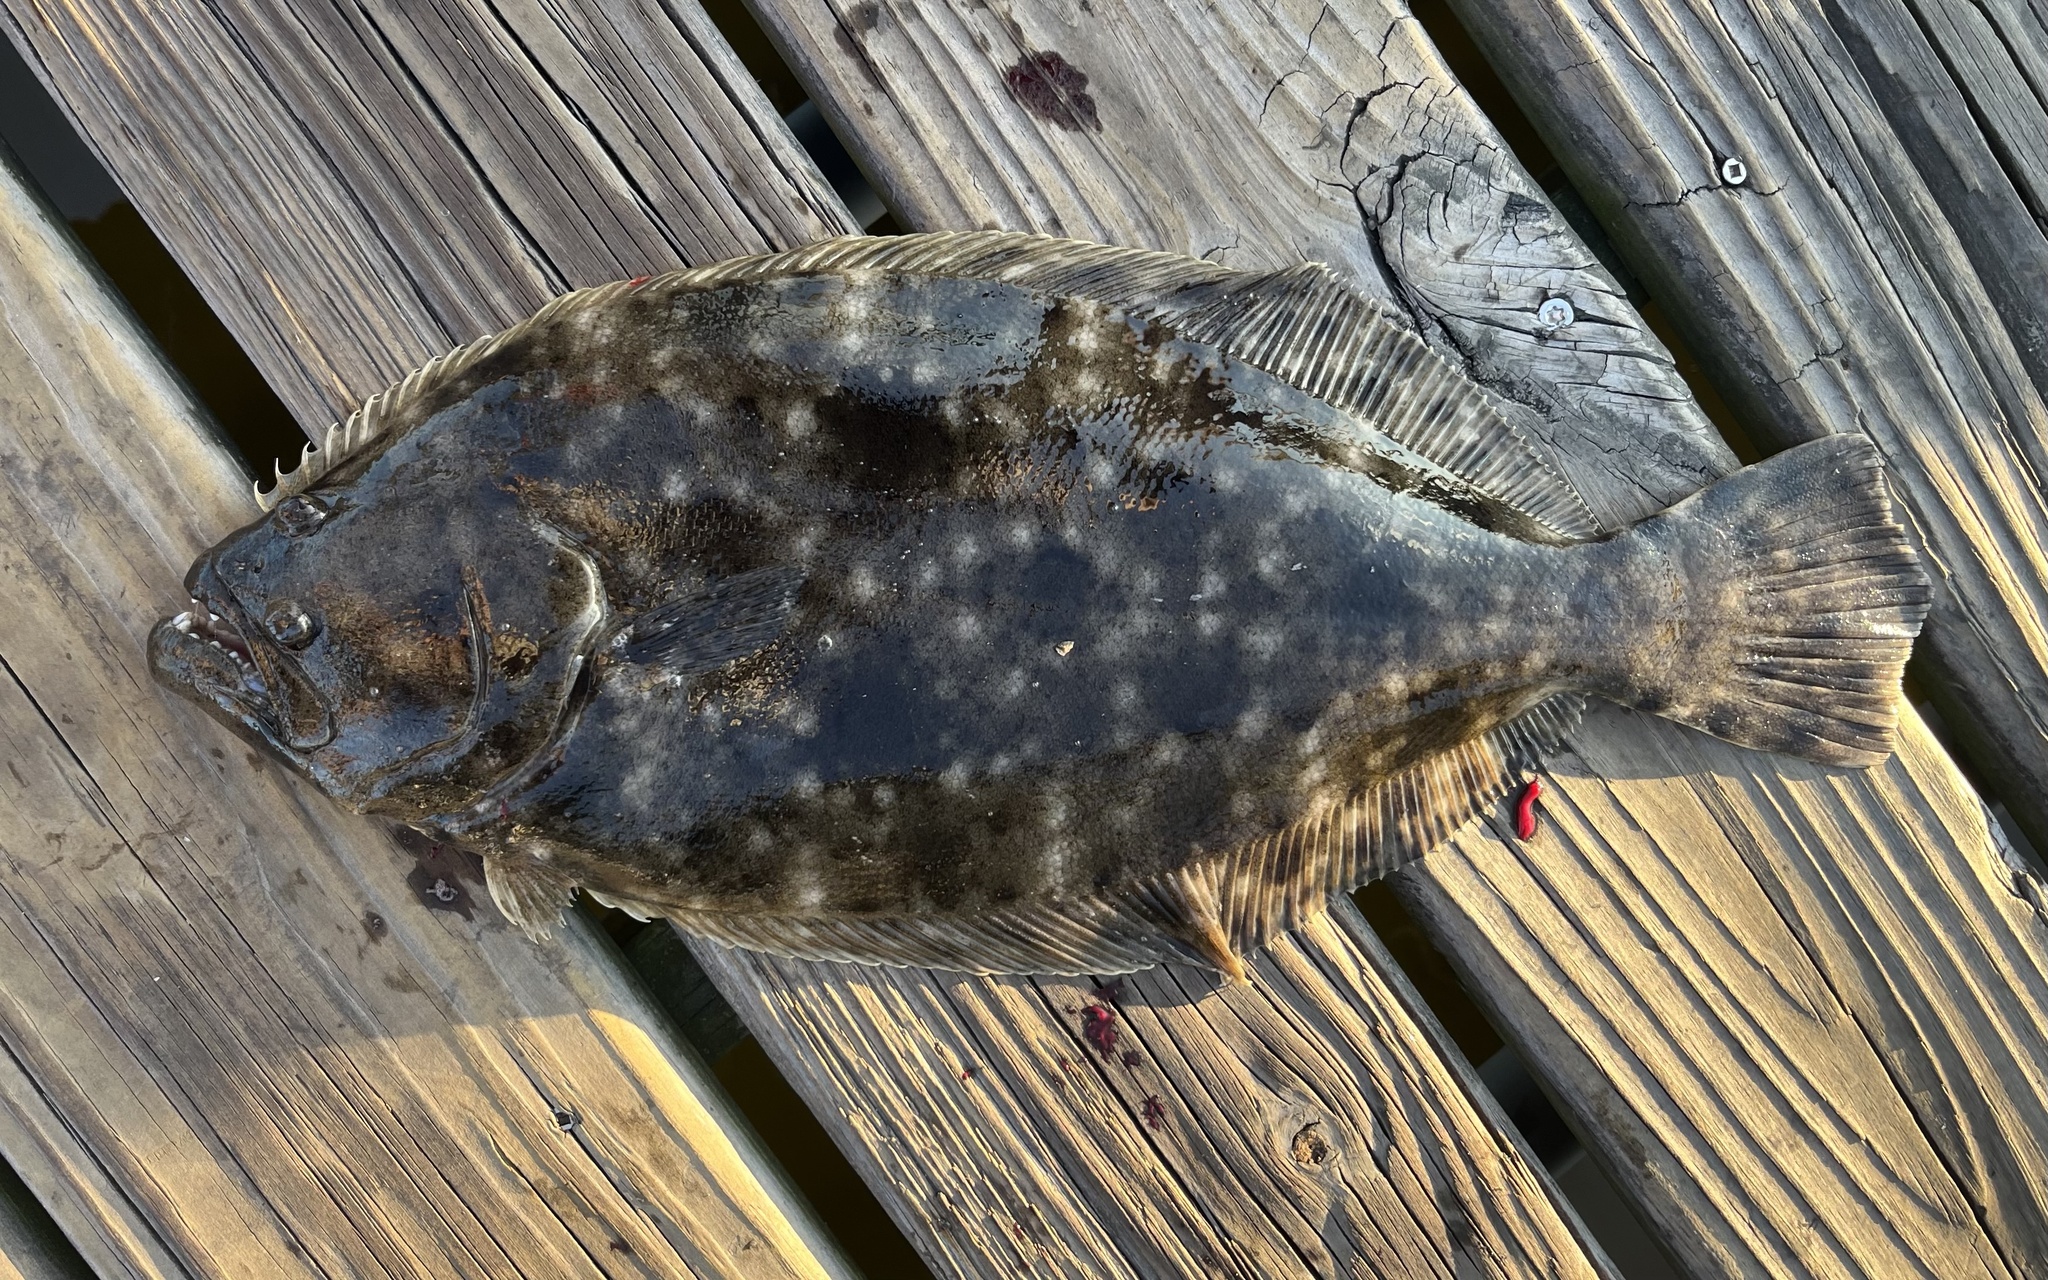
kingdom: Animalia
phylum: Chordata
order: Pleuronectiformes
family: Paralichthyidae
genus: Paralichthys
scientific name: Paralichthys lethostigma
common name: Southern flounder
